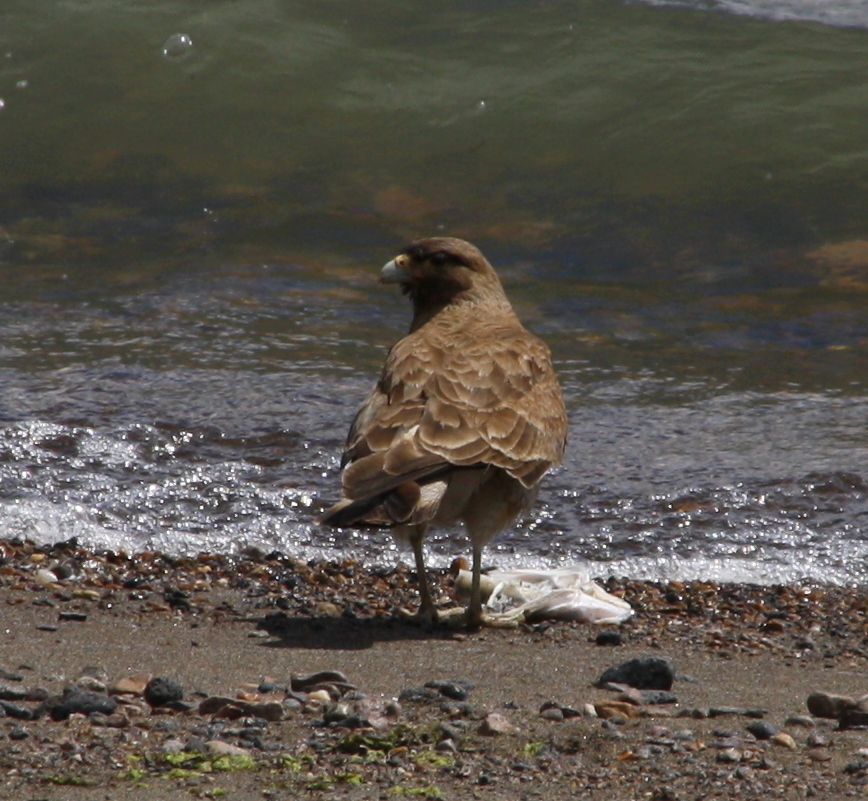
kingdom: Animalia
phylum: Chordata
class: Aves
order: Falconiformes
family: Falconidae
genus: Daptrius
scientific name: Daptrius
